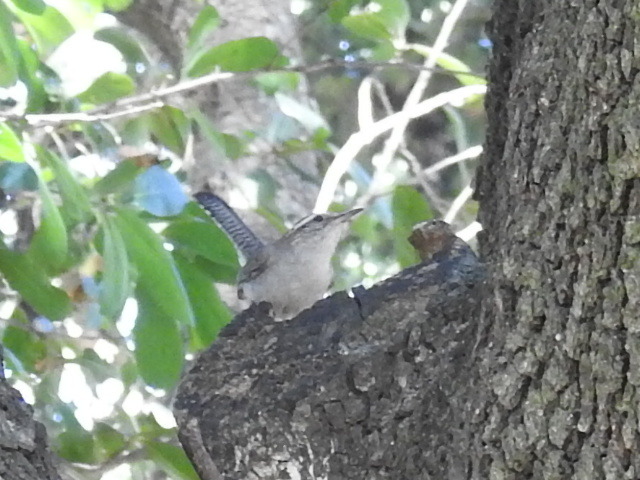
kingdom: Animalia
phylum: Chordata
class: Aves
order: Passeriformes
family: Troglodytidae
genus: Thryomanes
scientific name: Thryomanes bewickii
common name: Bewick's wren
